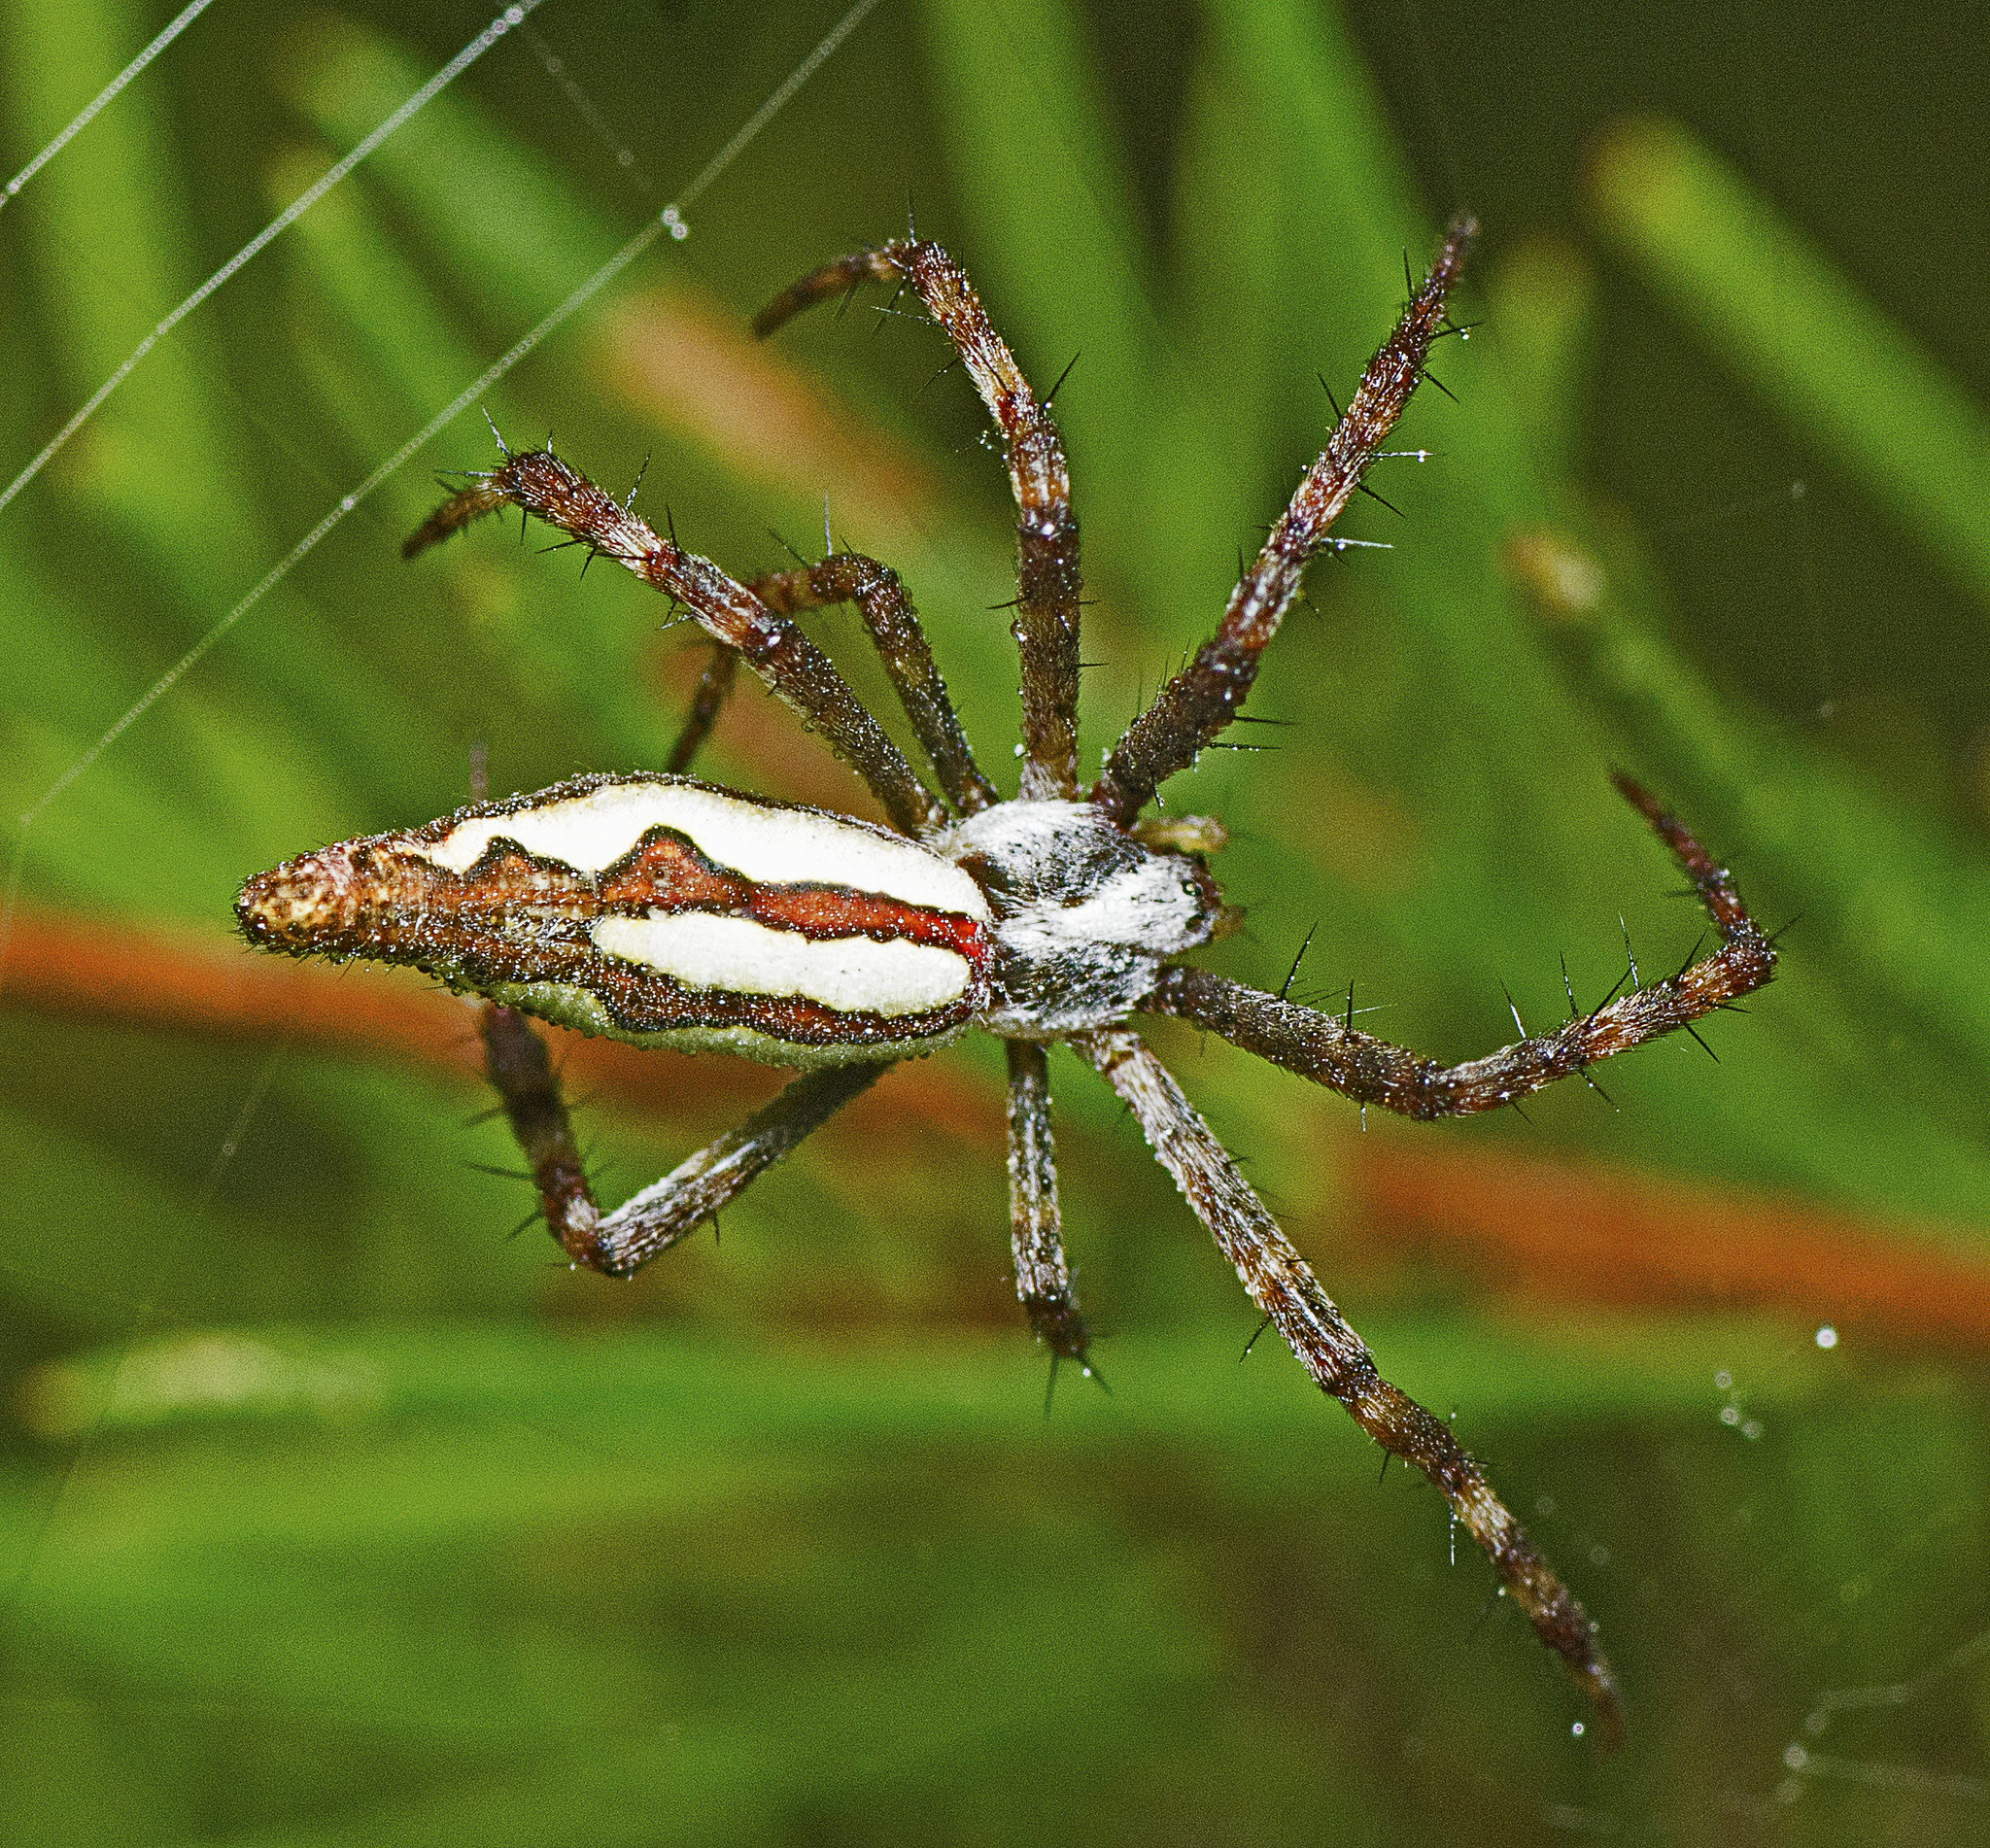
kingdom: Animalia
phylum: Arthropoda
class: Arachnida
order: Araneae
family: Araneidae
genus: Argiope
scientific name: Argiope probata
